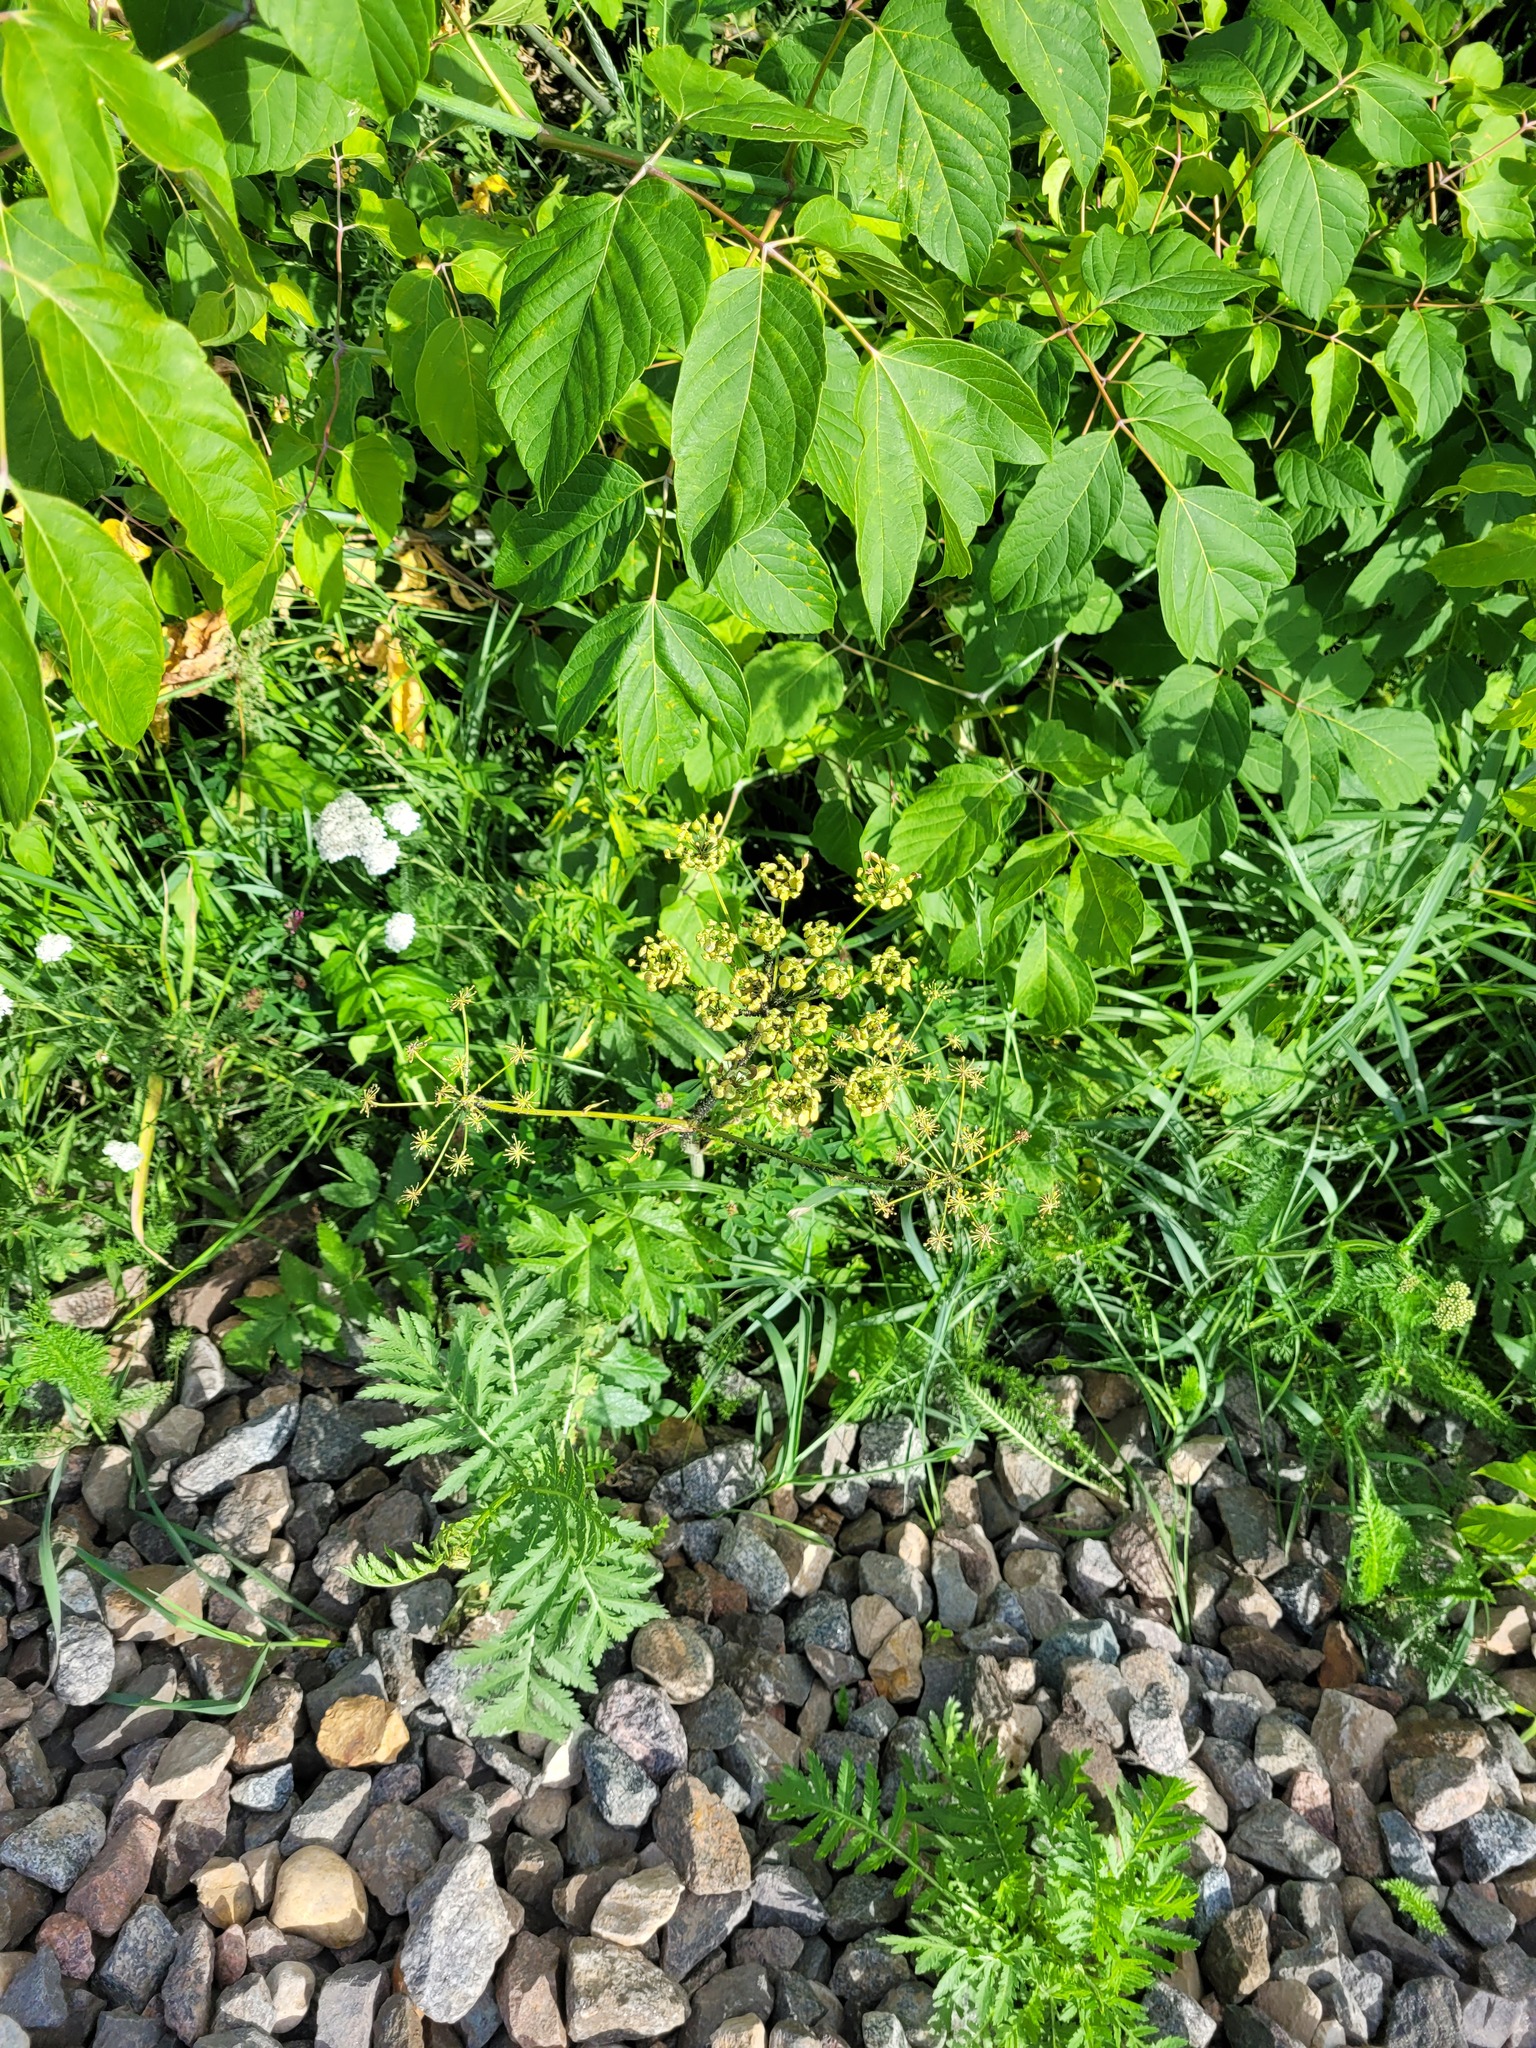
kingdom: Plantae
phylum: Tracheophyta
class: Magnoliopsida
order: Apiales
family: Apiaceae
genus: Heracleum
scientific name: Heracleum sphondylium
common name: Hogweed
